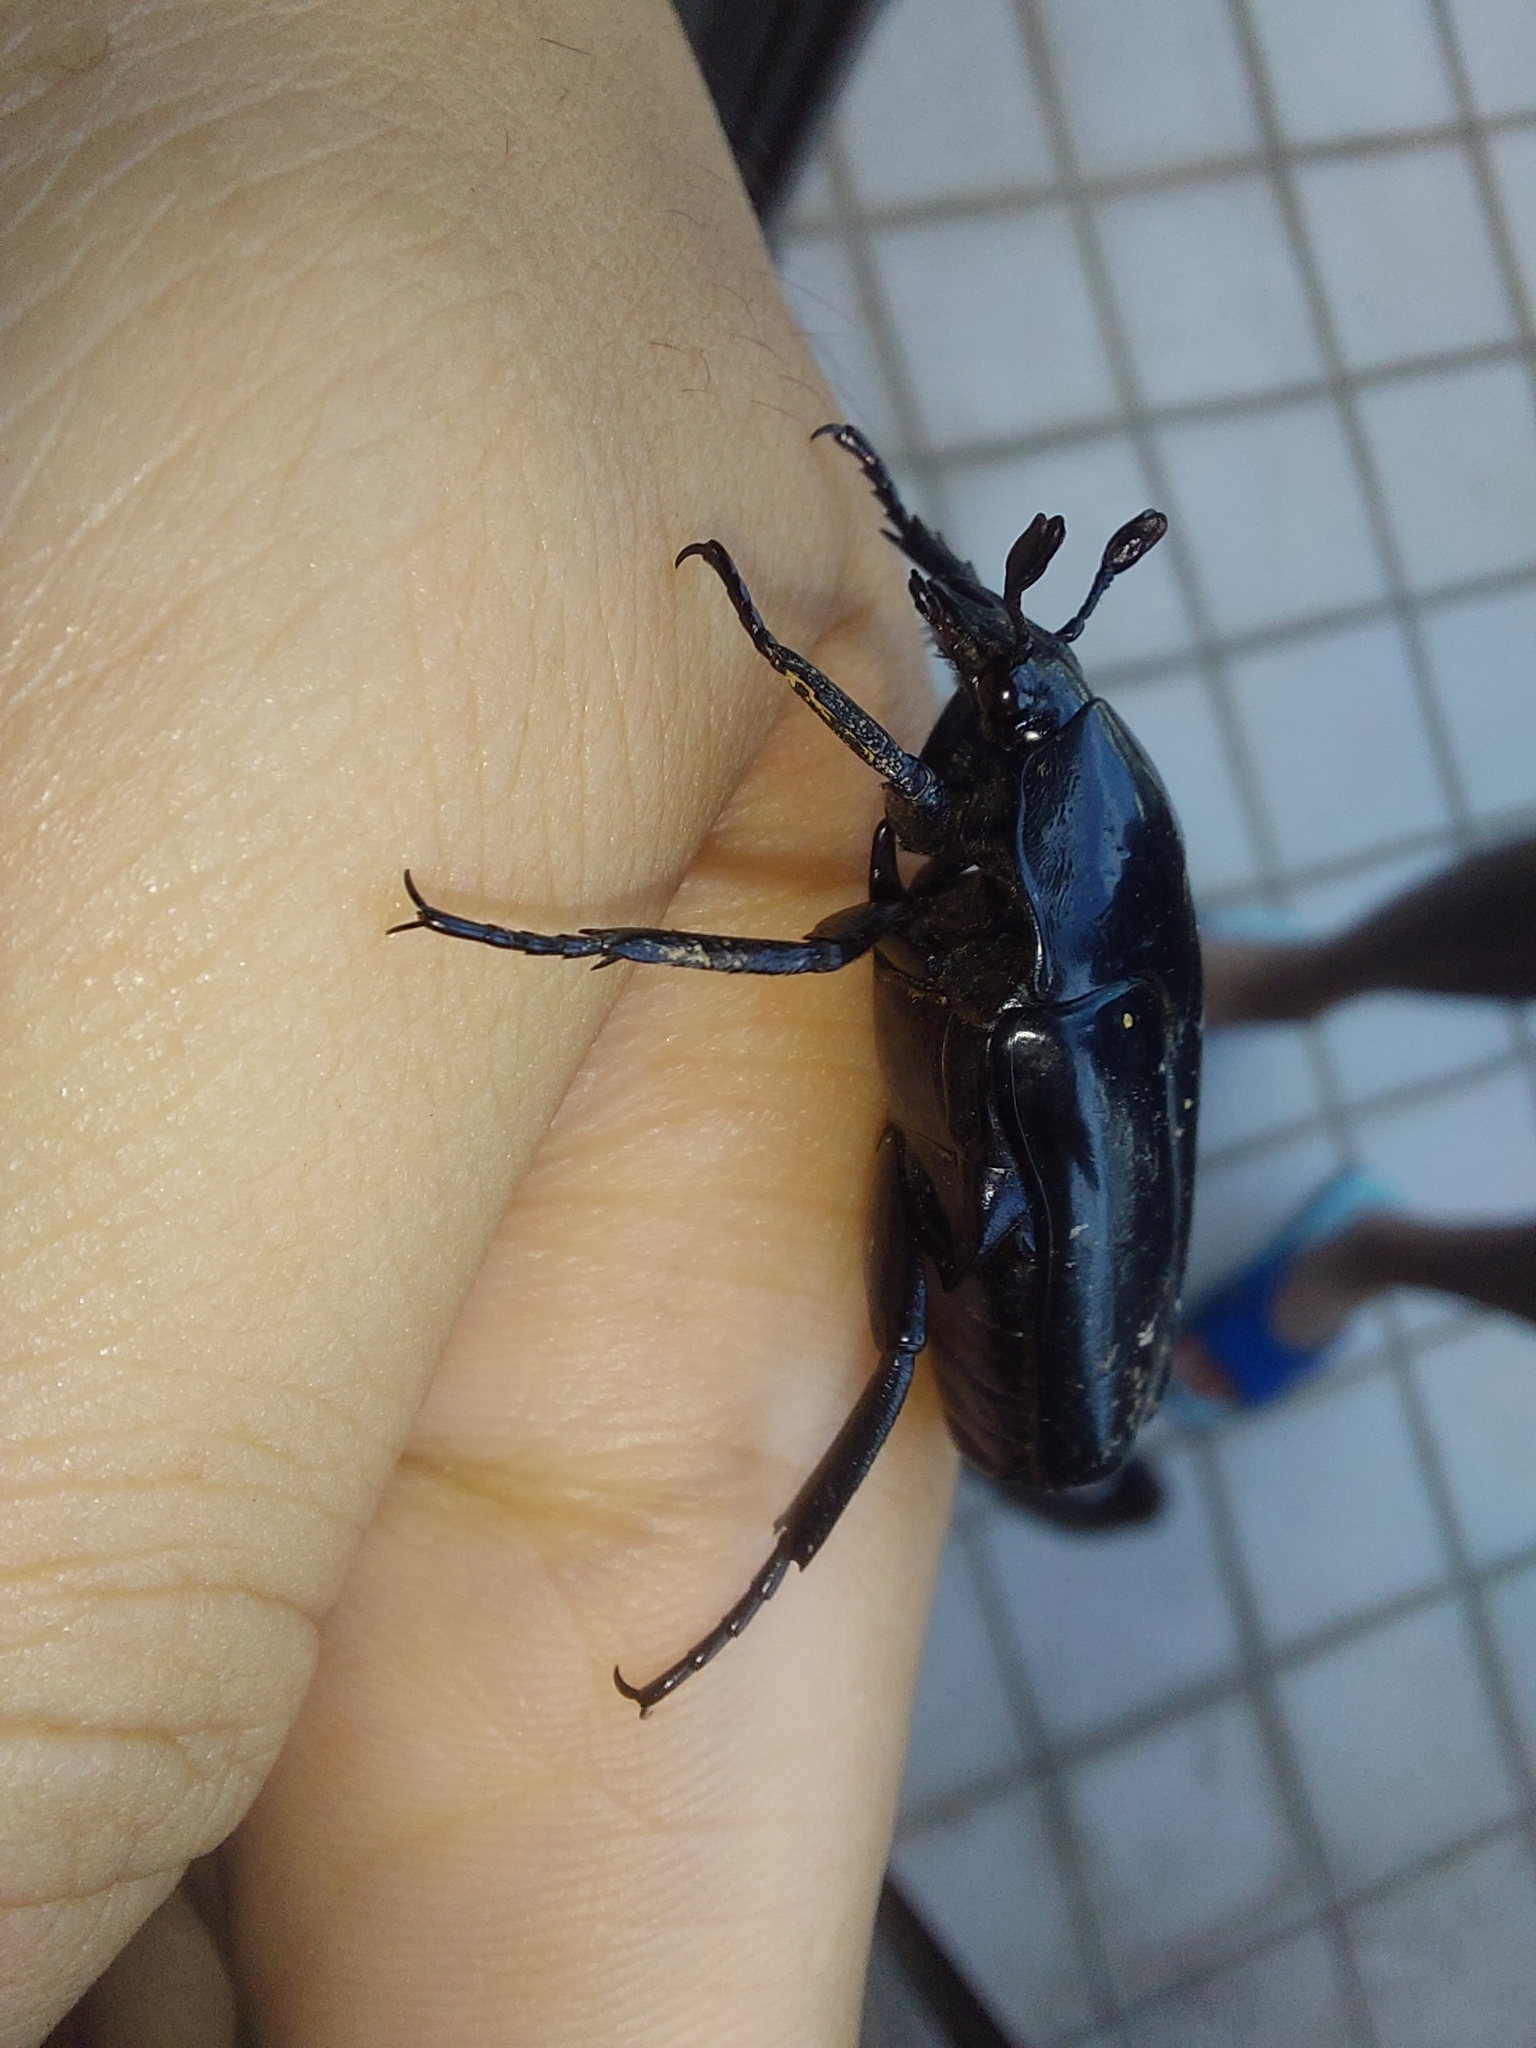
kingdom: Animalia
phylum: Arthropoda
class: Insecta
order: Coleoptera
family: Scarabaeidae
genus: Macronota
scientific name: Macronota shangaicus
